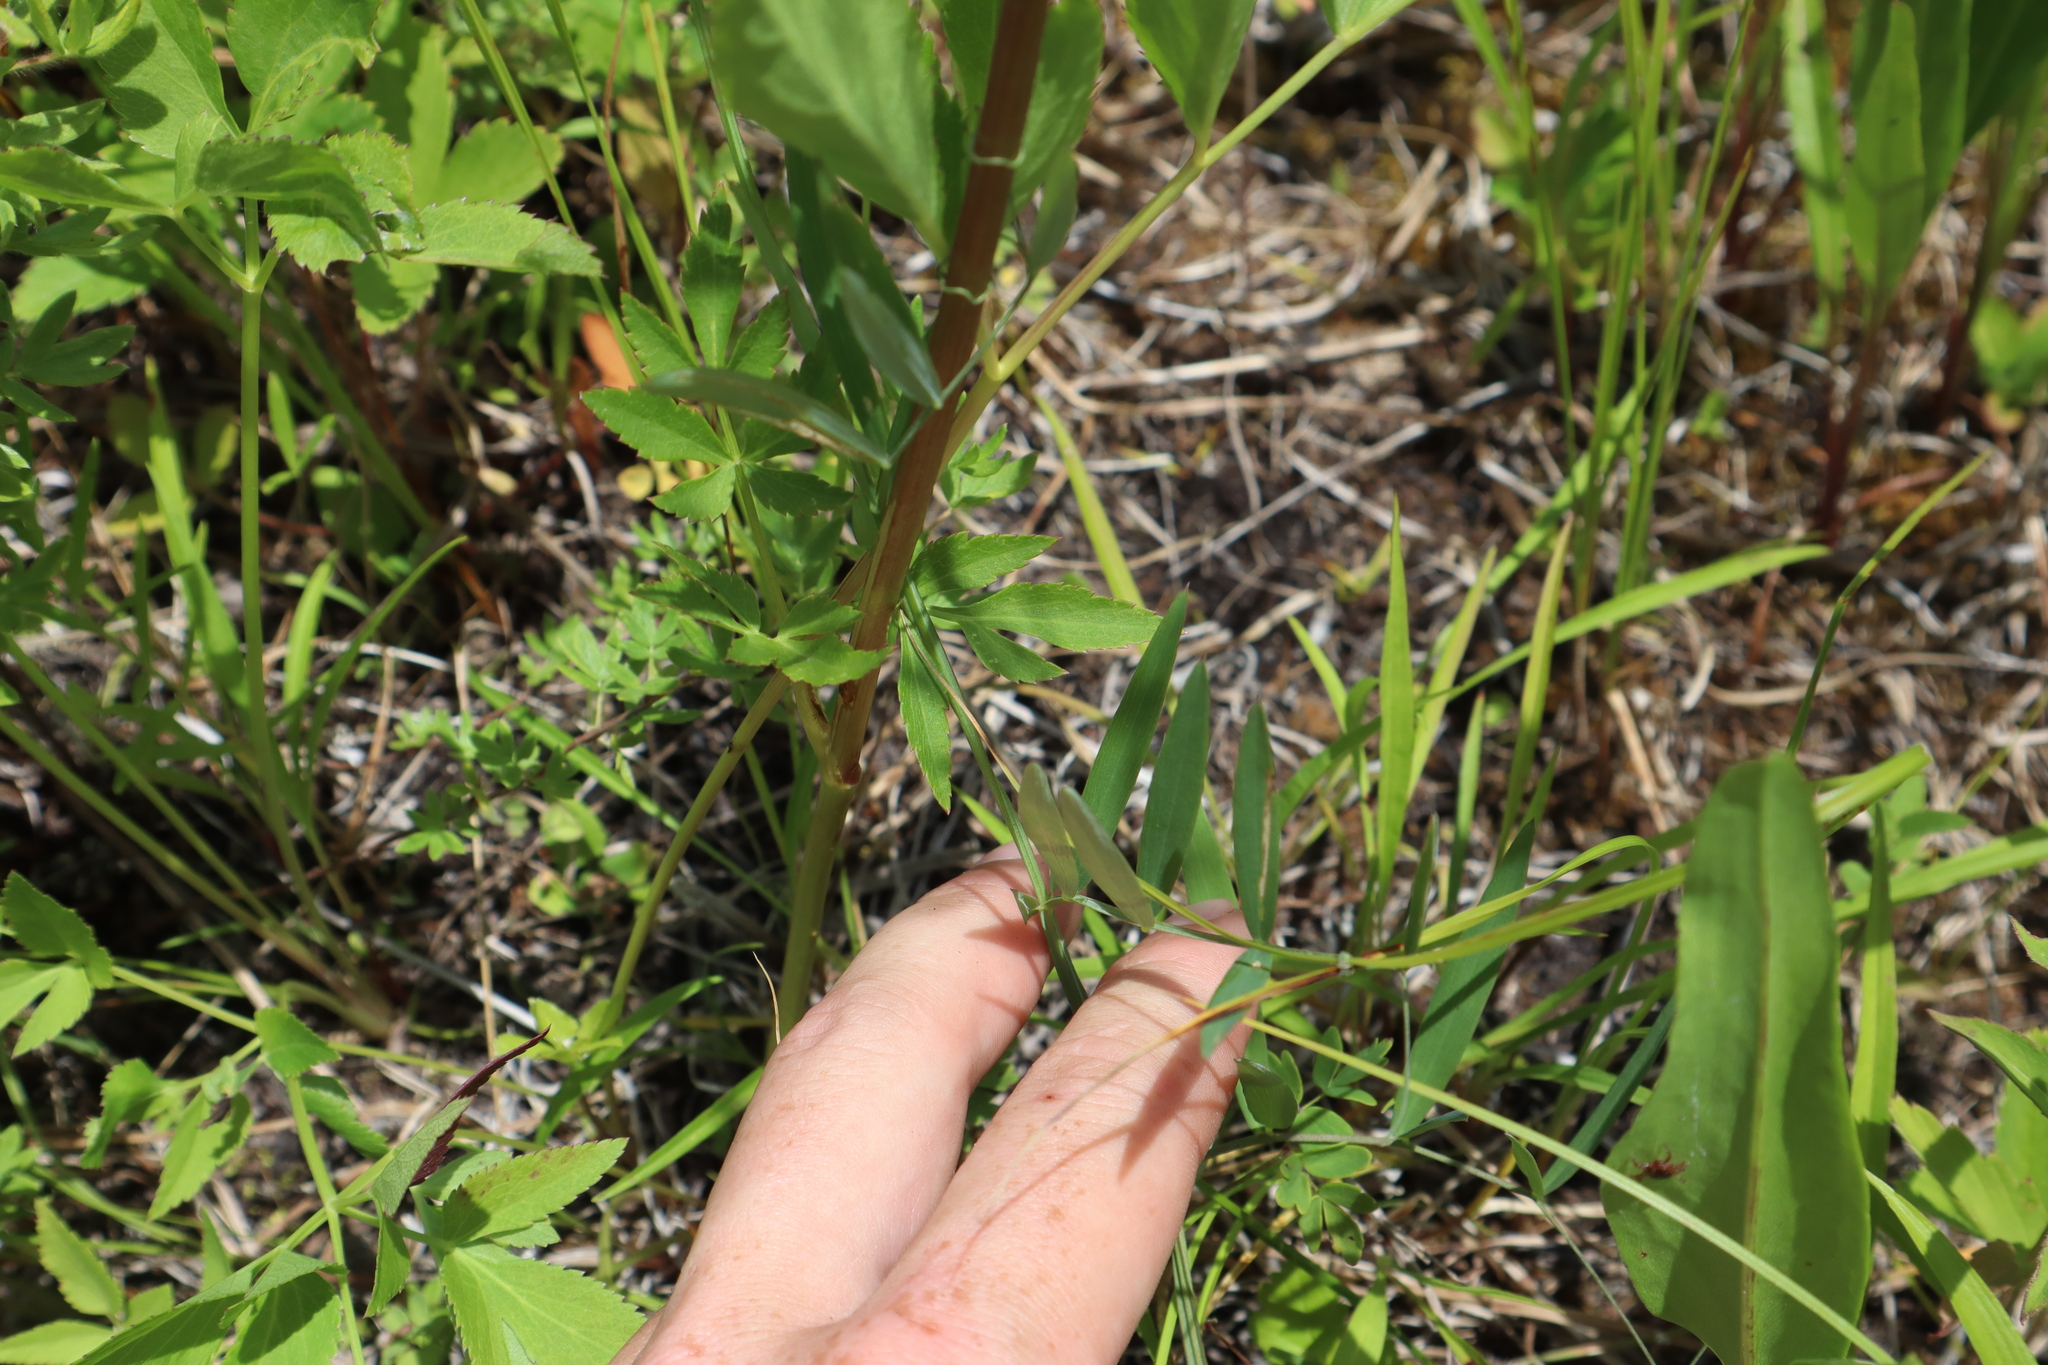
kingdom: Plantae
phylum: Tracheophyta
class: Magnoliopsida
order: Fabales
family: Fabaceae
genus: Lathyrus
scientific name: Lathyrus palustris
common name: Marsh pea
